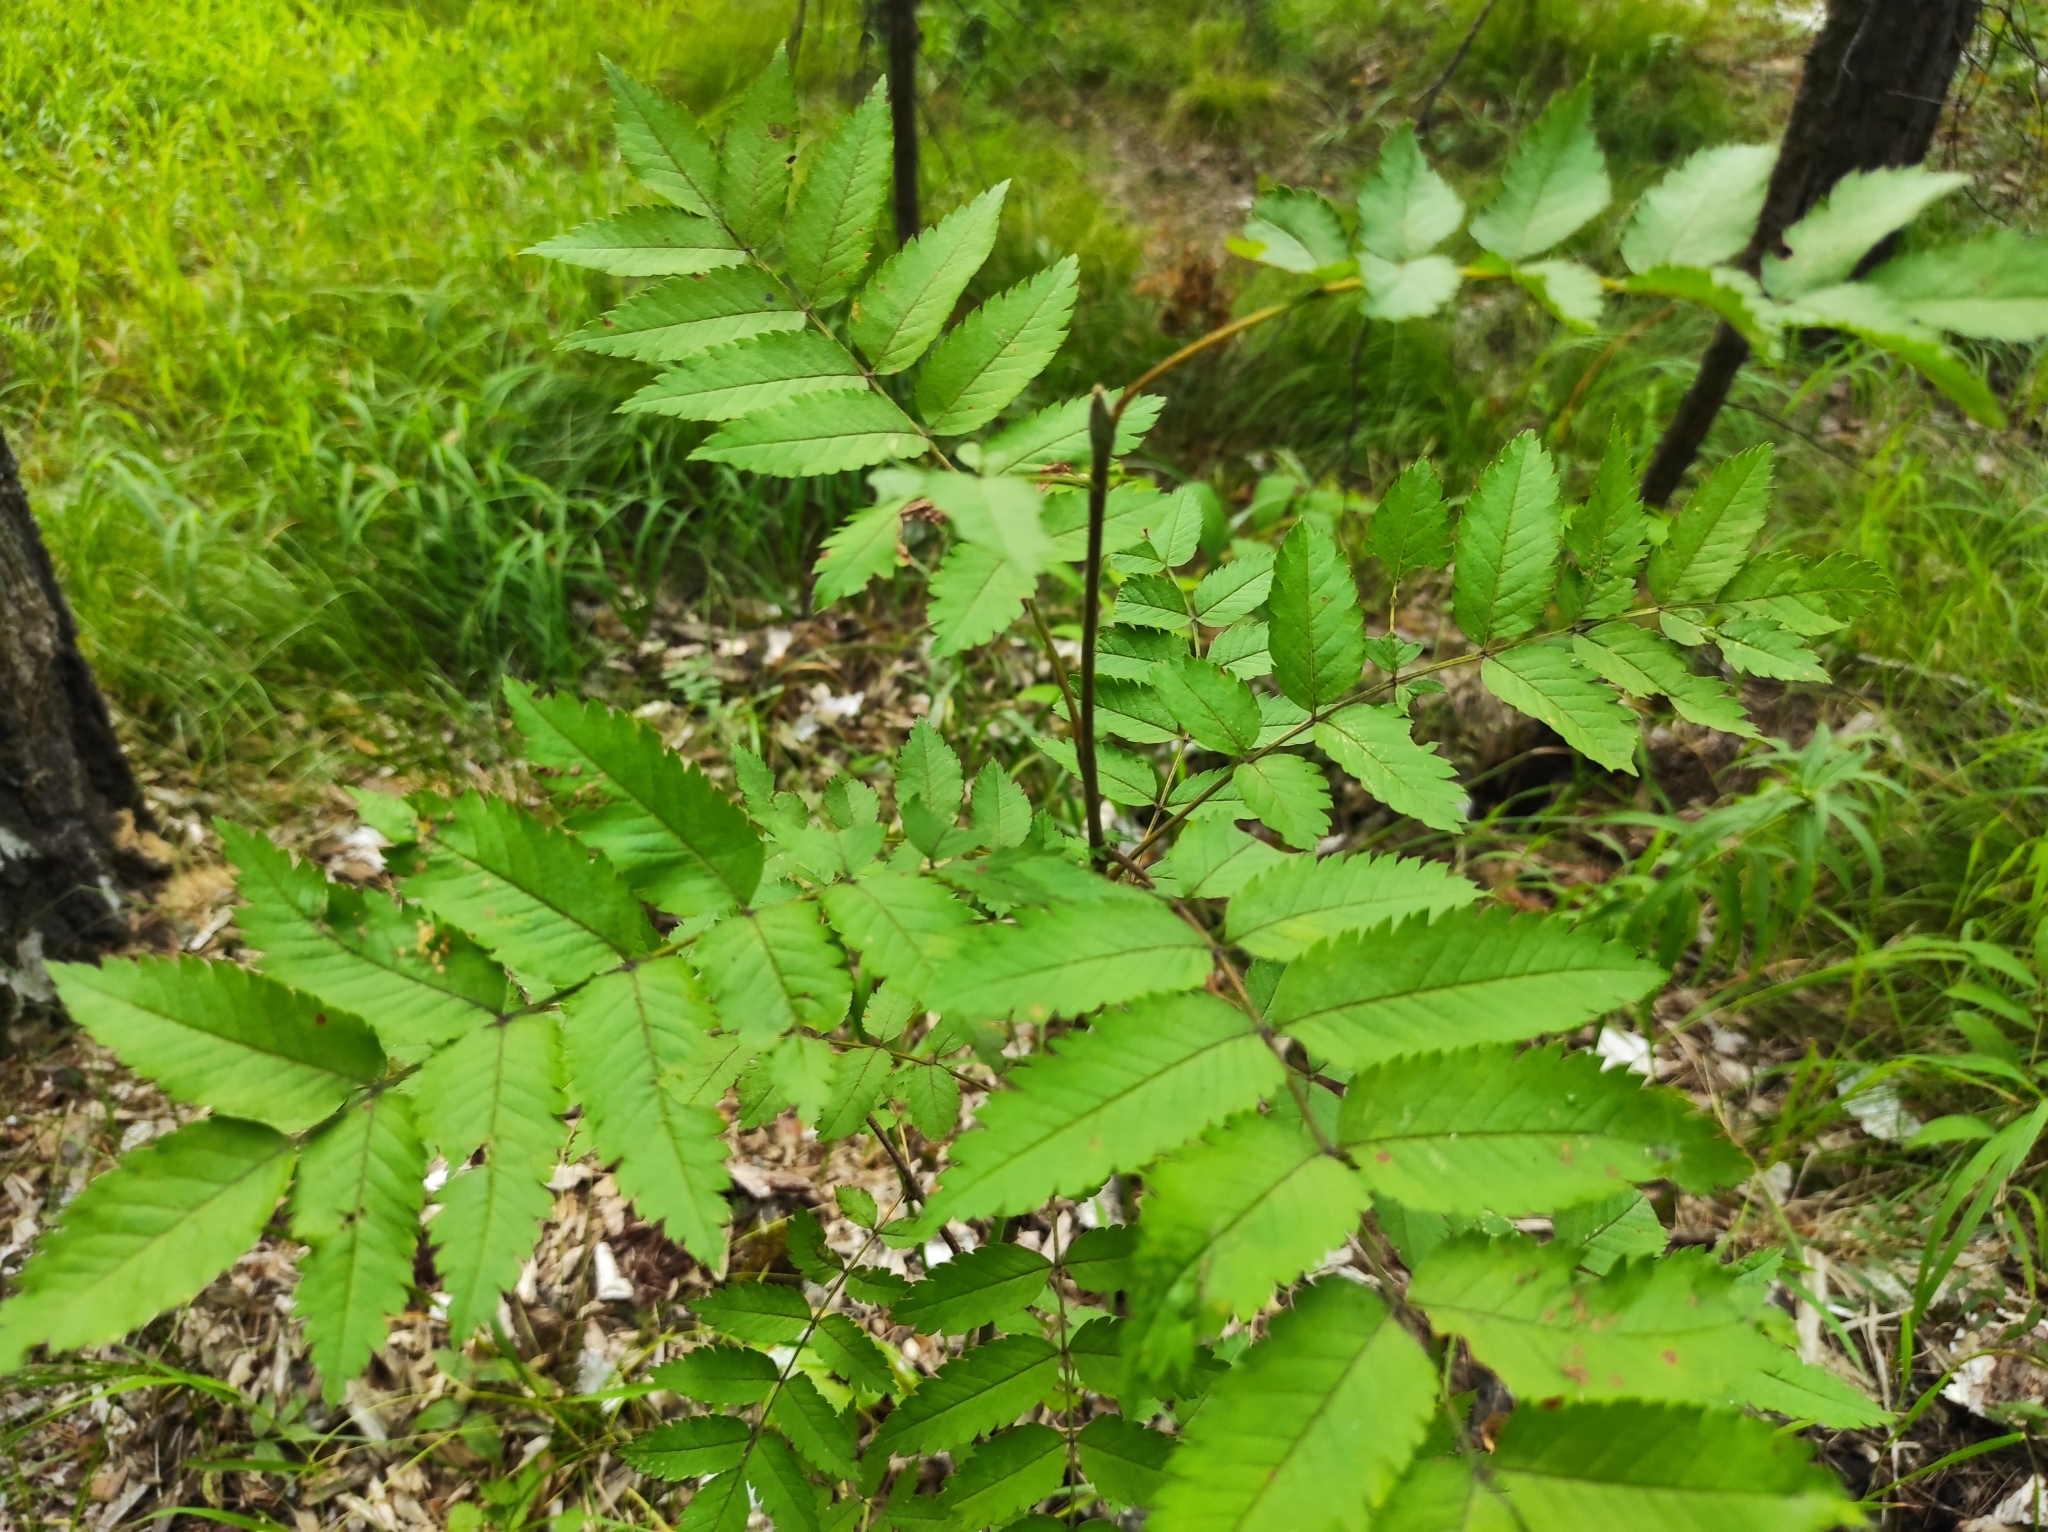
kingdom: Plantae
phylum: Tracheophyta
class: Magnoliopsida
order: Rosales
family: Rosaceae
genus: Sorbus
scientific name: Sorbus aucuparia
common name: Rowan
